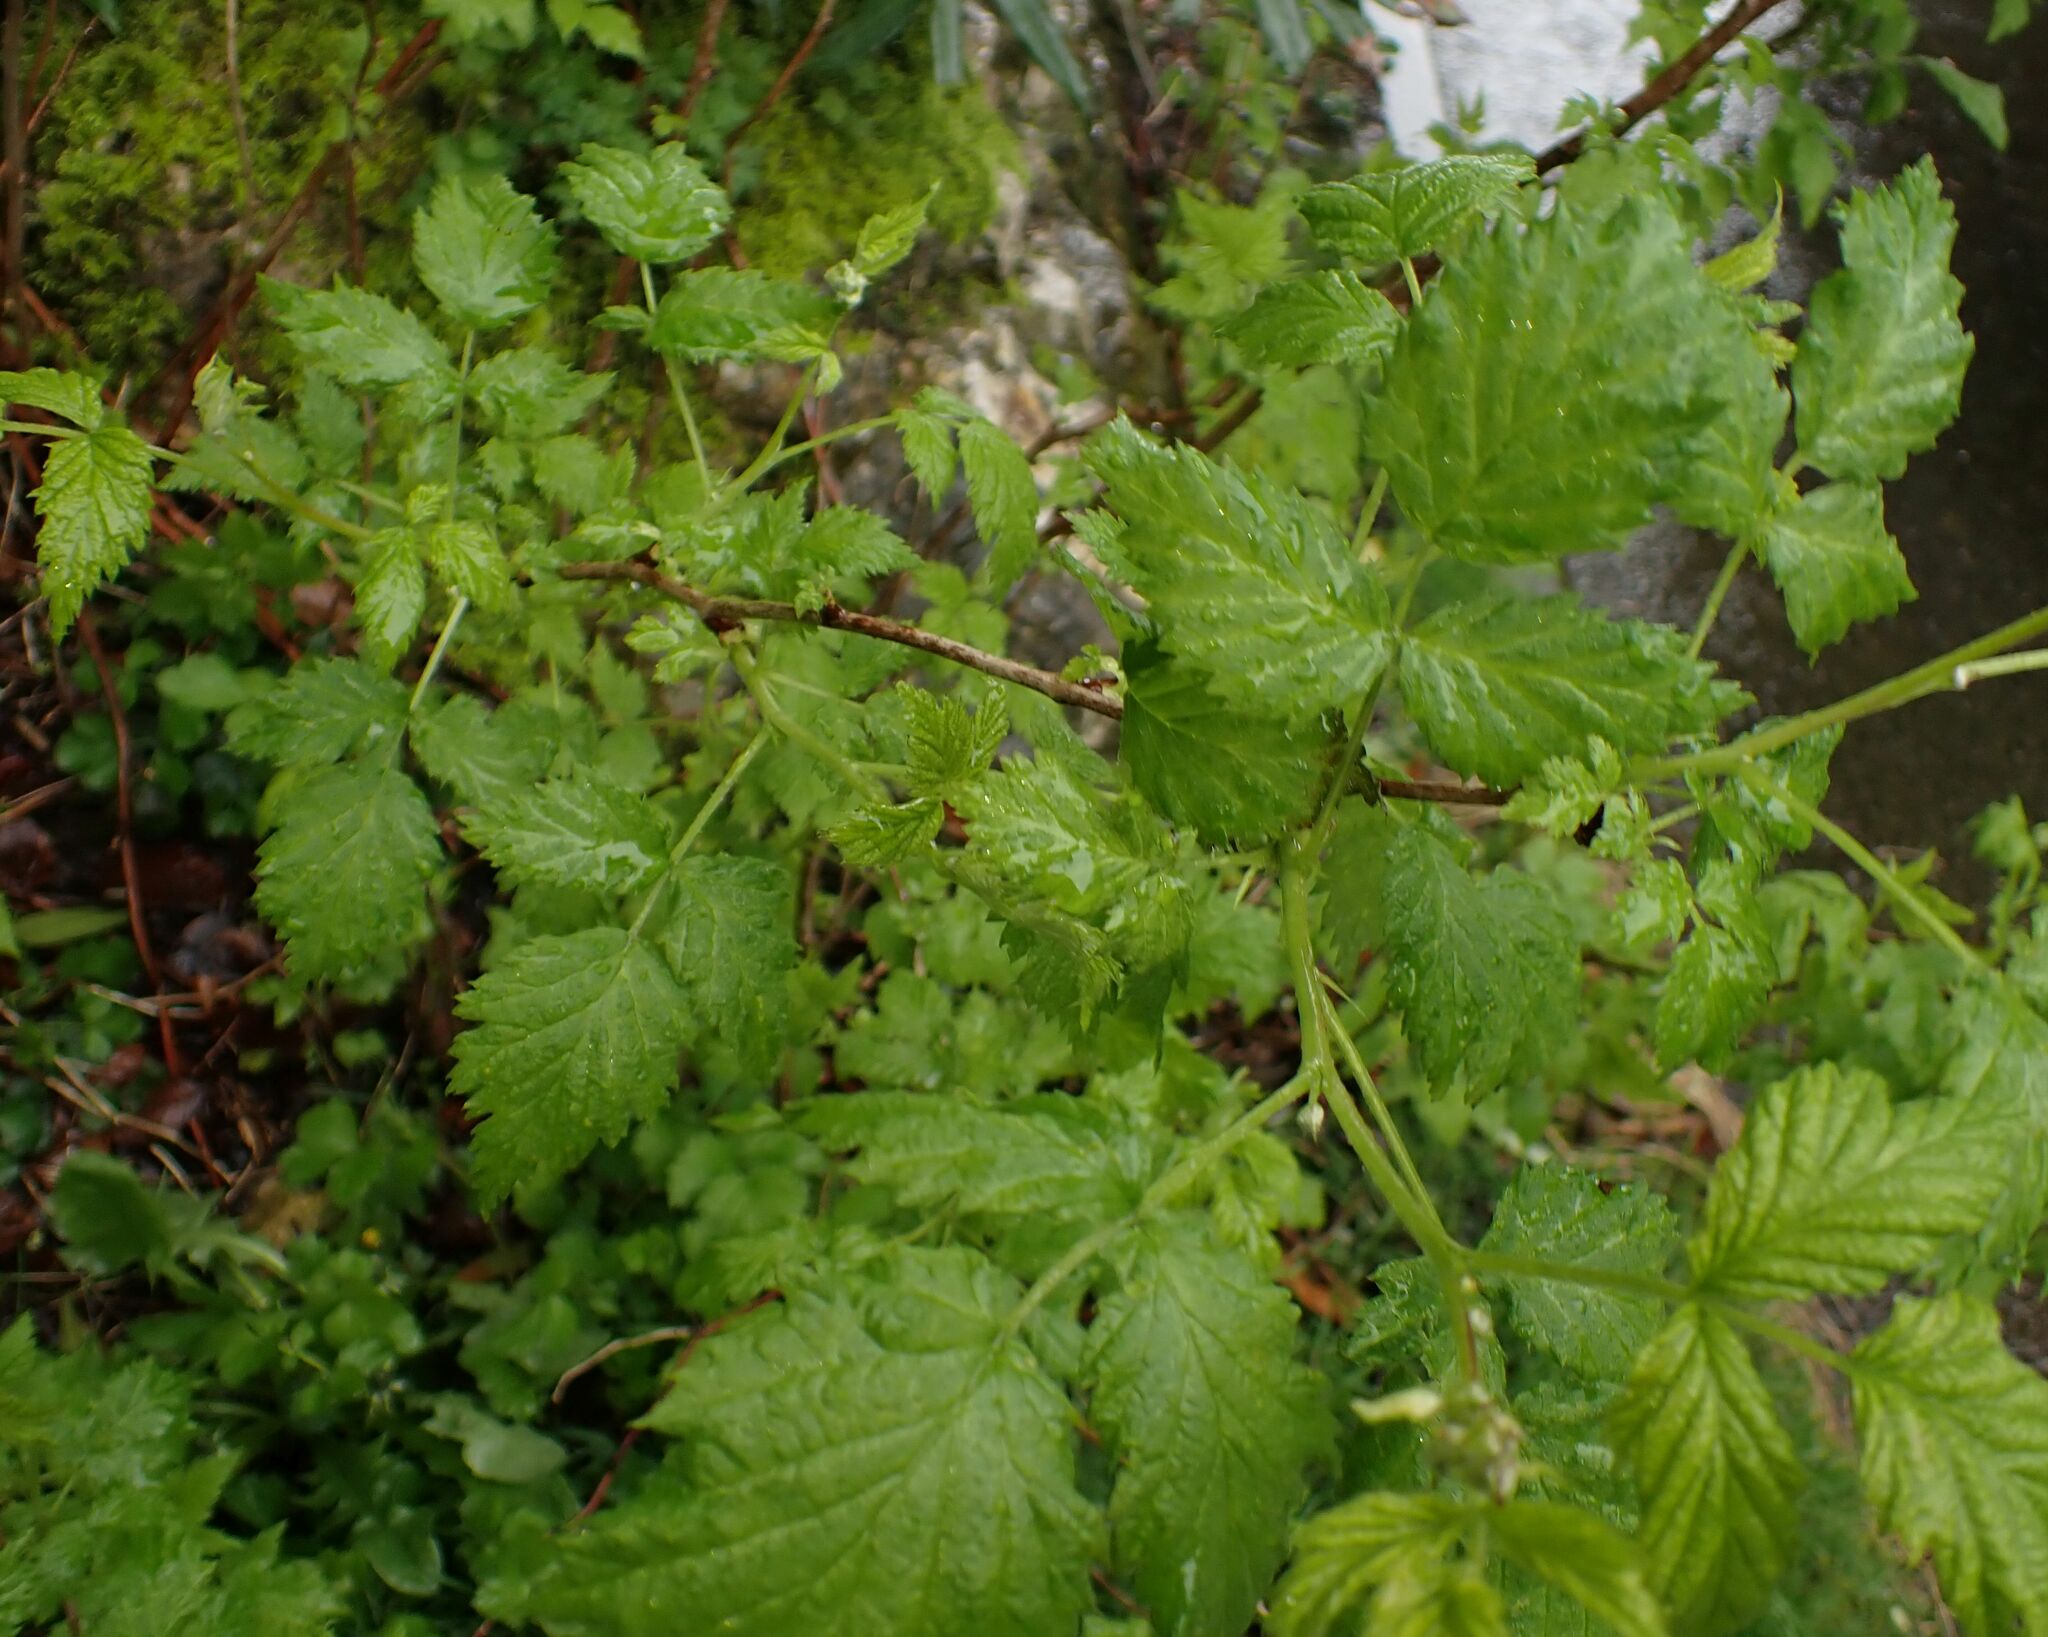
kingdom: Plantae
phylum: Tracheophyta
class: Magnoliopsida
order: Rosales
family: Rosaceae
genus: Rubus
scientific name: Rubus idaeus
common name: Raspberry
